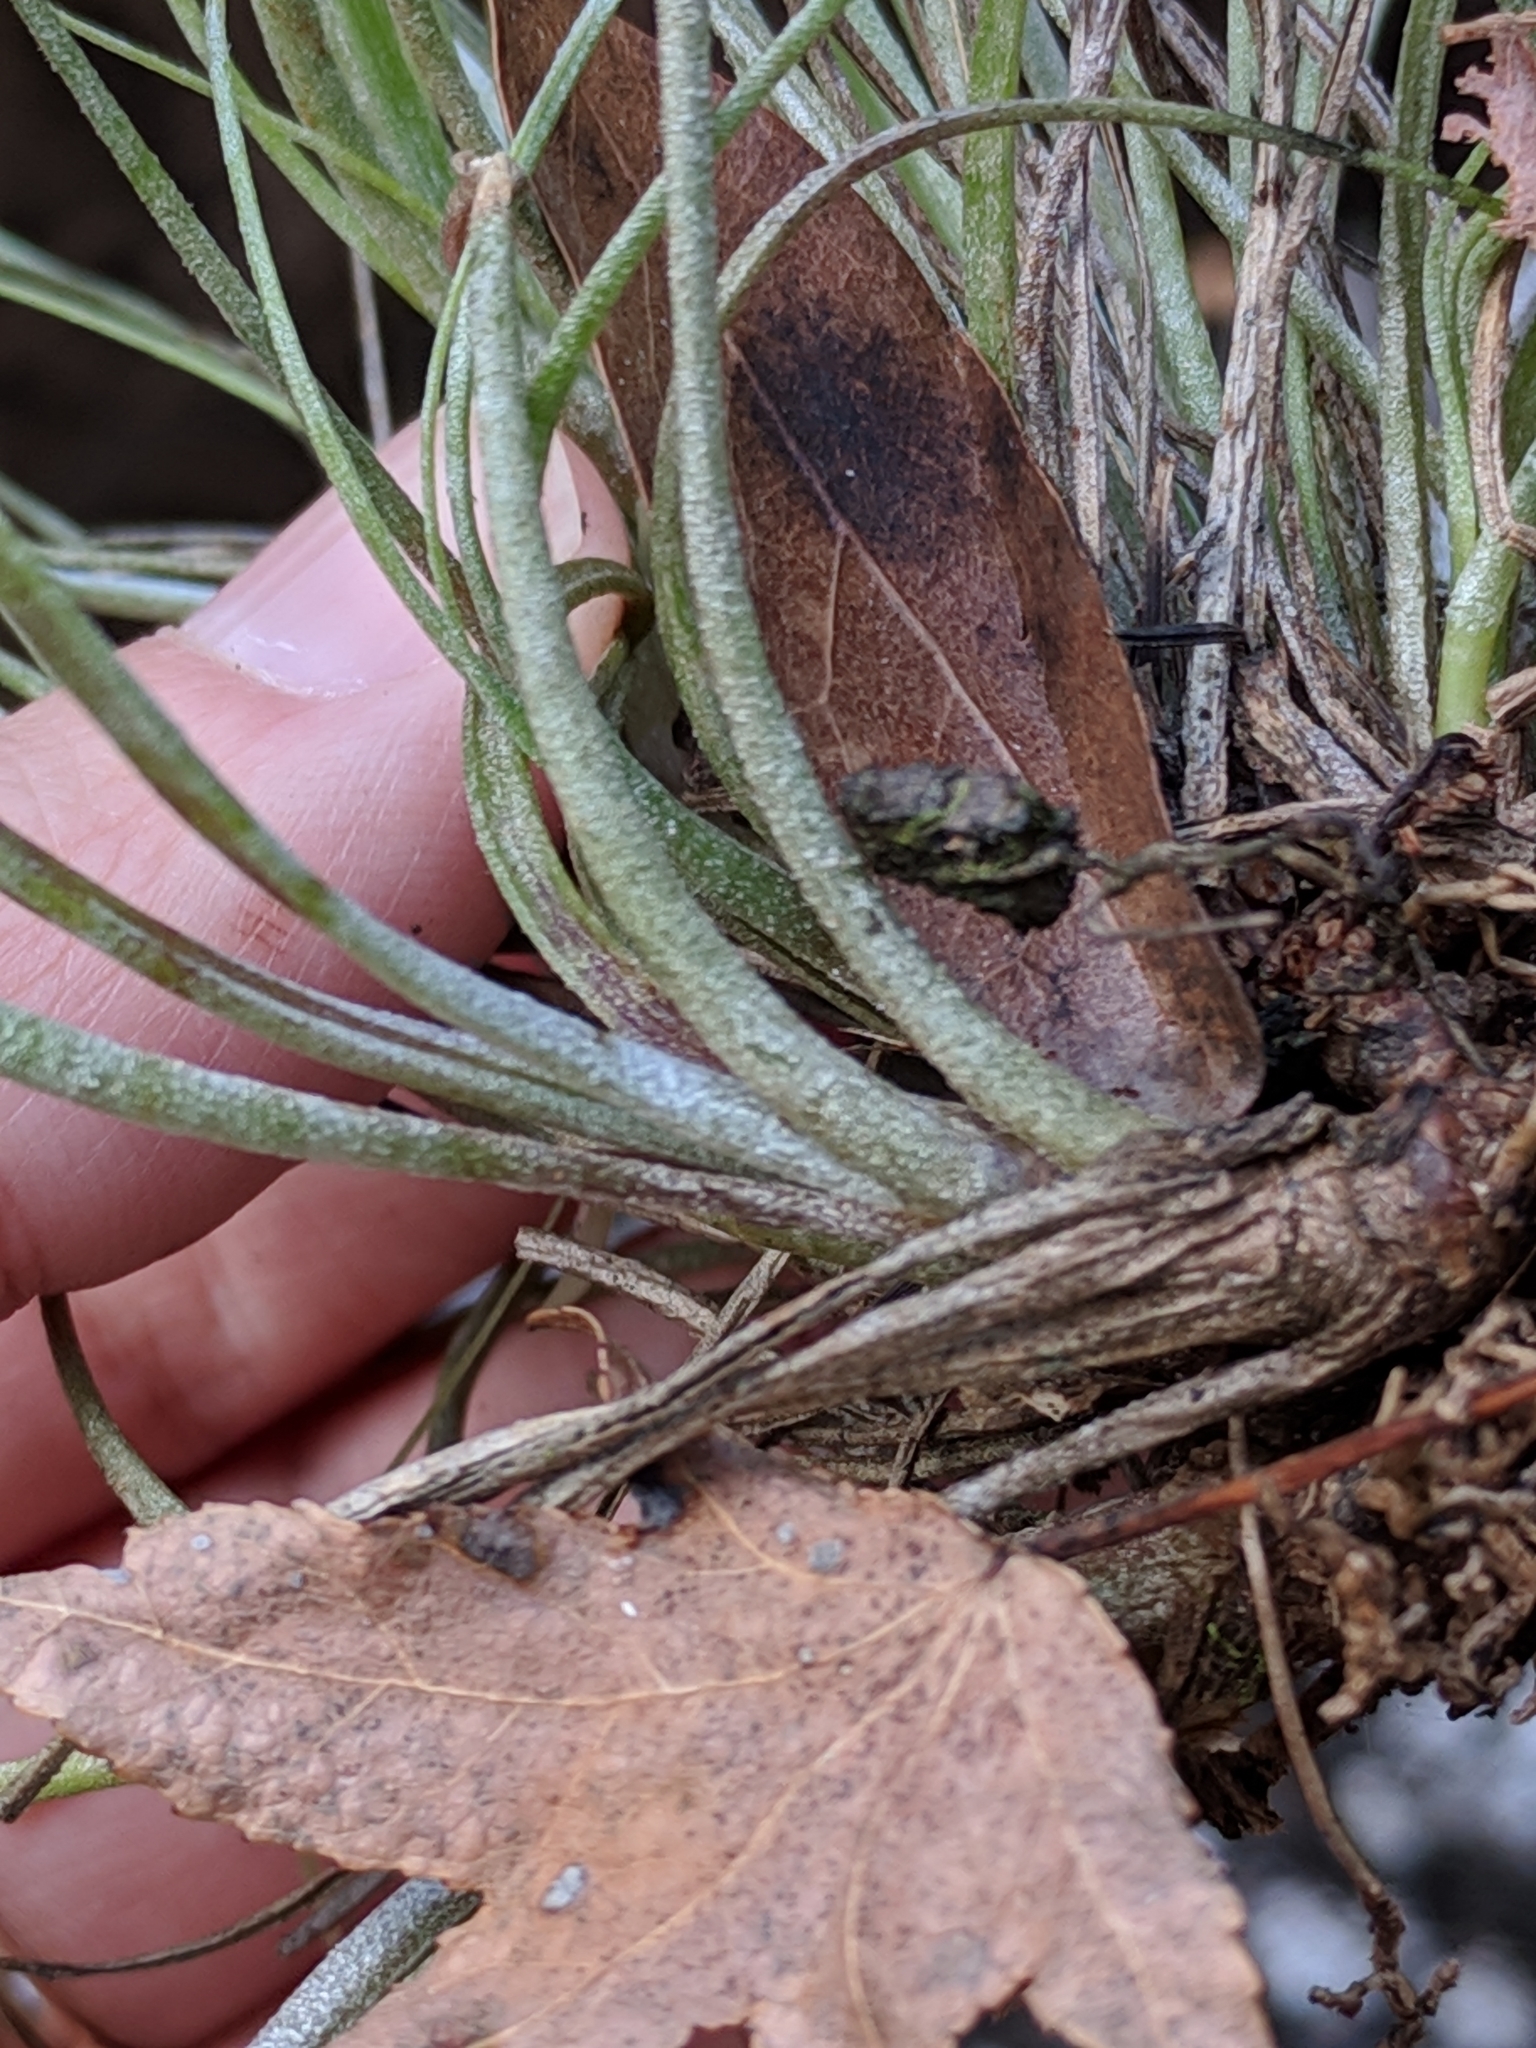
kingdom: Plantae
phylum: Tracheophyta
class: Liliopsida
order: Poales
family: Bromeliaceae
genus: Tillandsia
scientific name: Tillandsia bartramii
